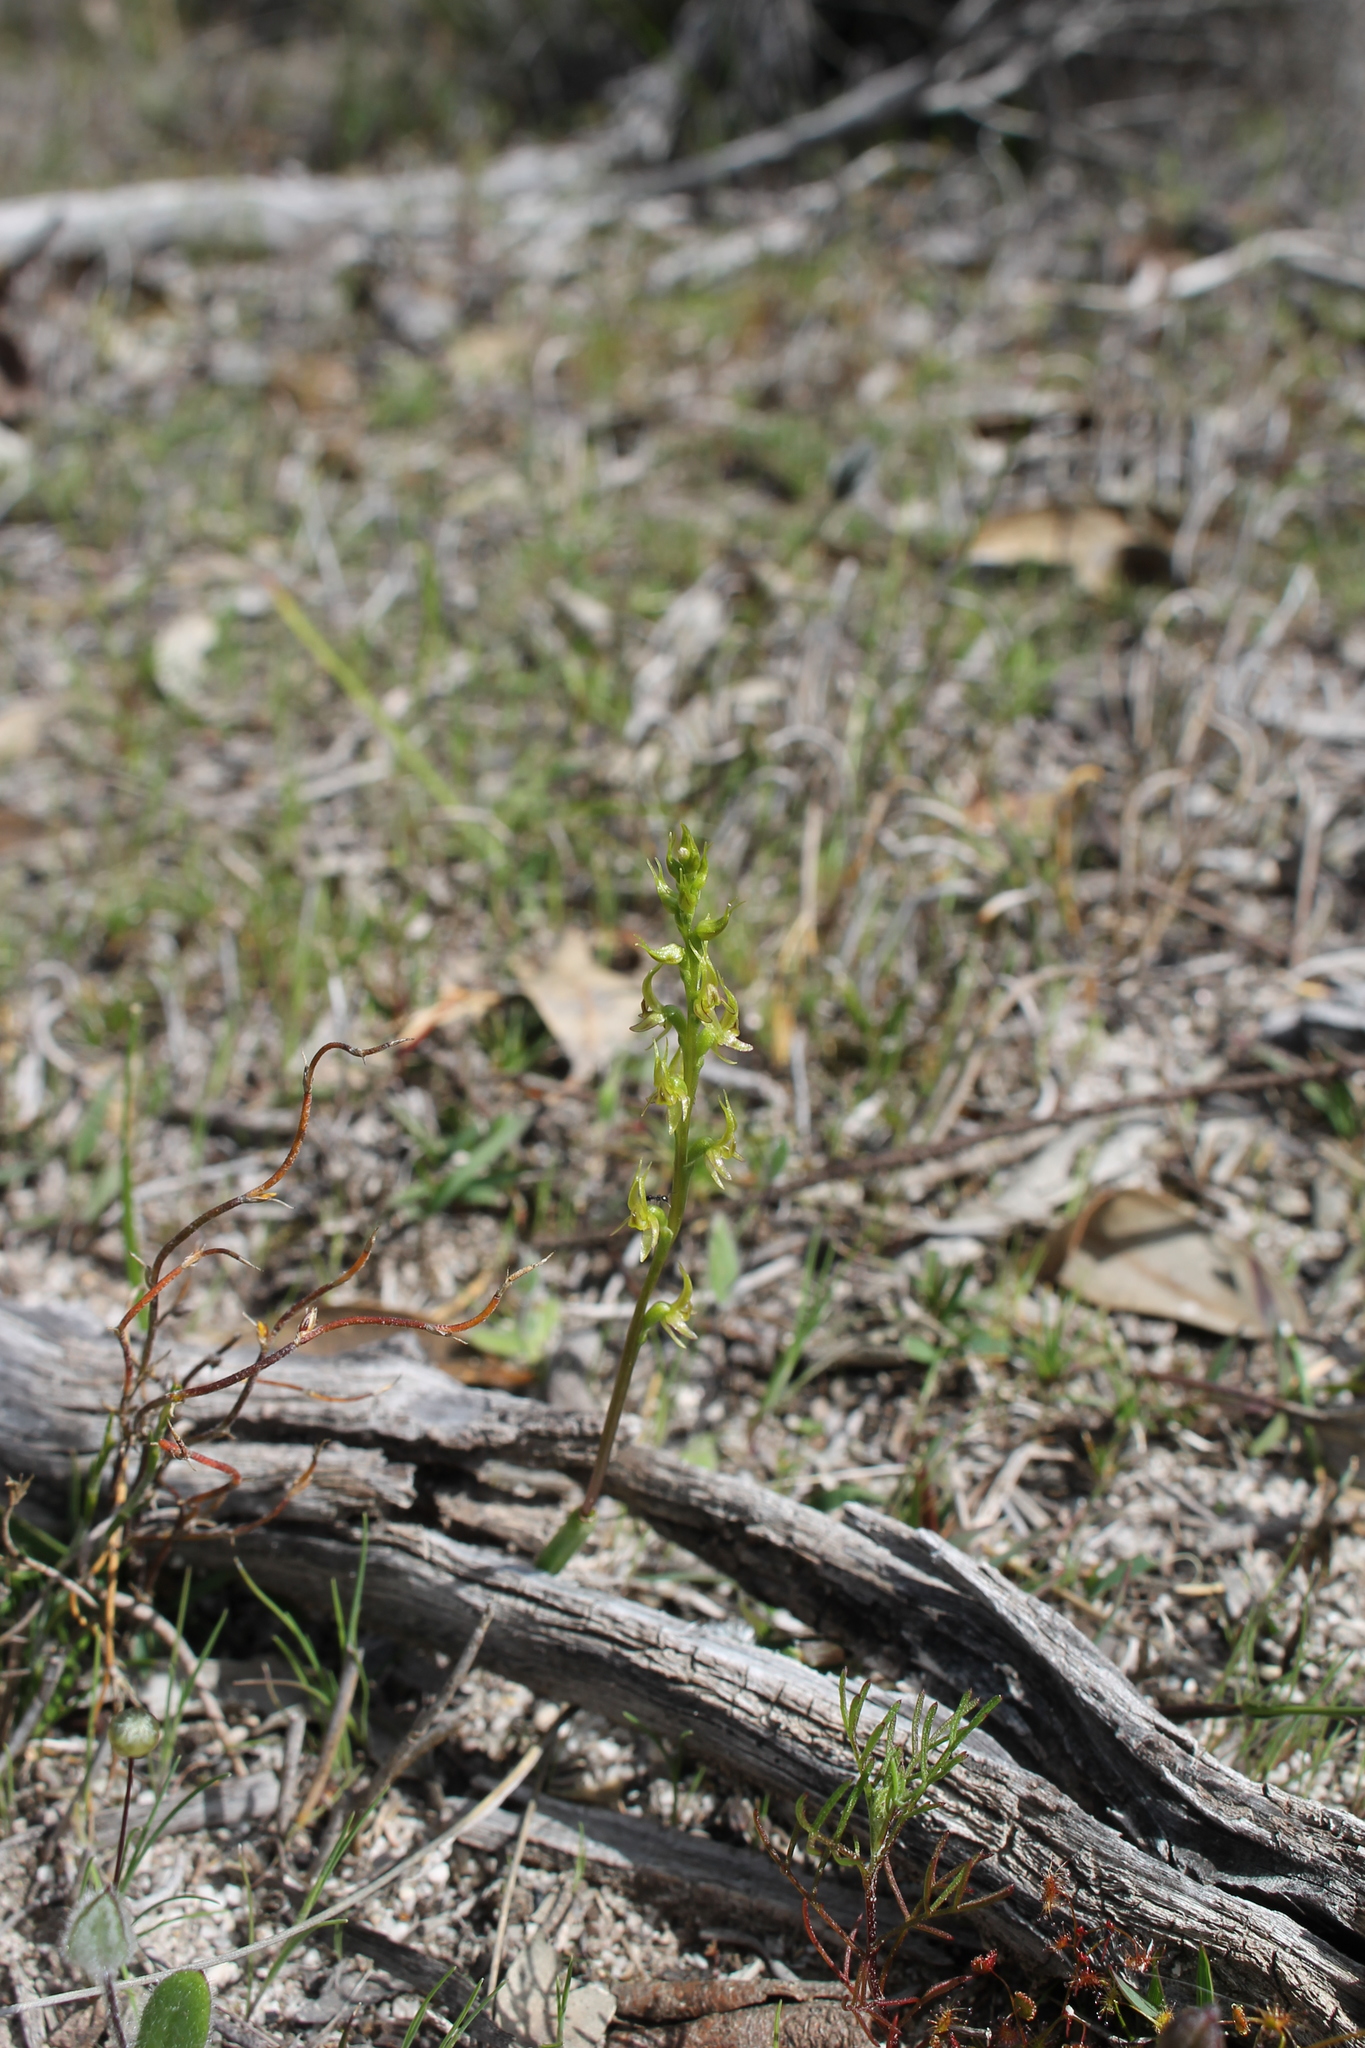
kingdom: Plantae
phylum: Tracheophyta
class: Liliopsida
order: Asparagales
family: Orchidaceae
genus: Prasophyllum
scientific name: Prasophyllum gracile
